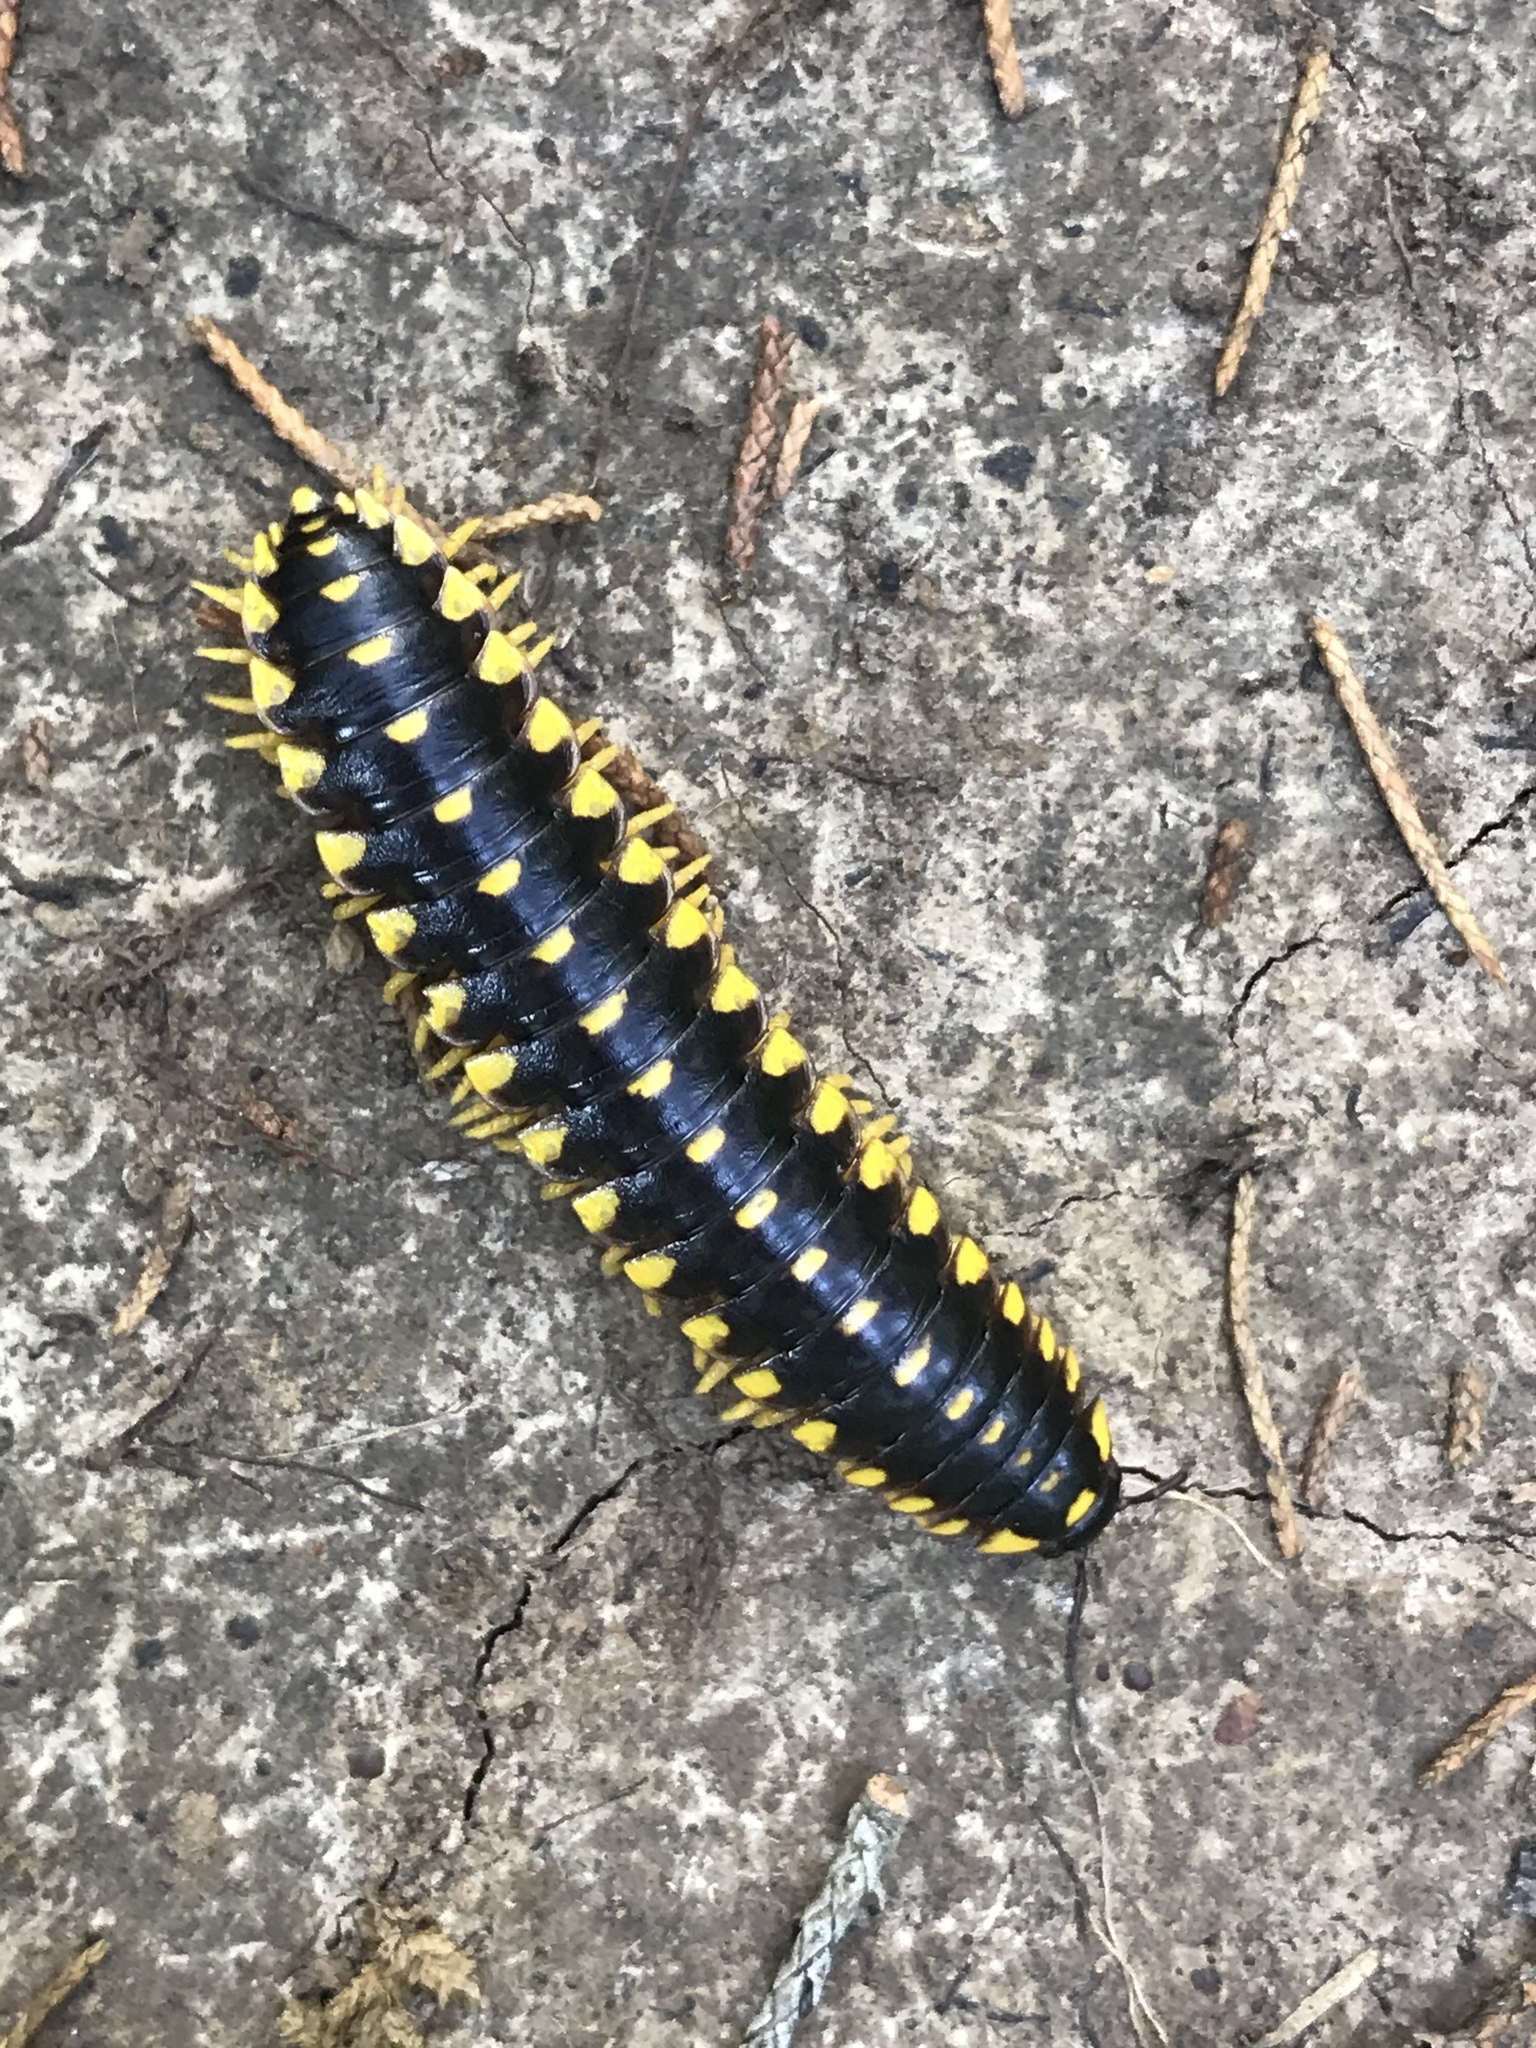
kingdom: Animalia
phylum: Arthropoda
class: Diplopoda
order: Polydesmida
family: Xystodesmidae
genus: Apheloria
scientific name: Apheloria montana
